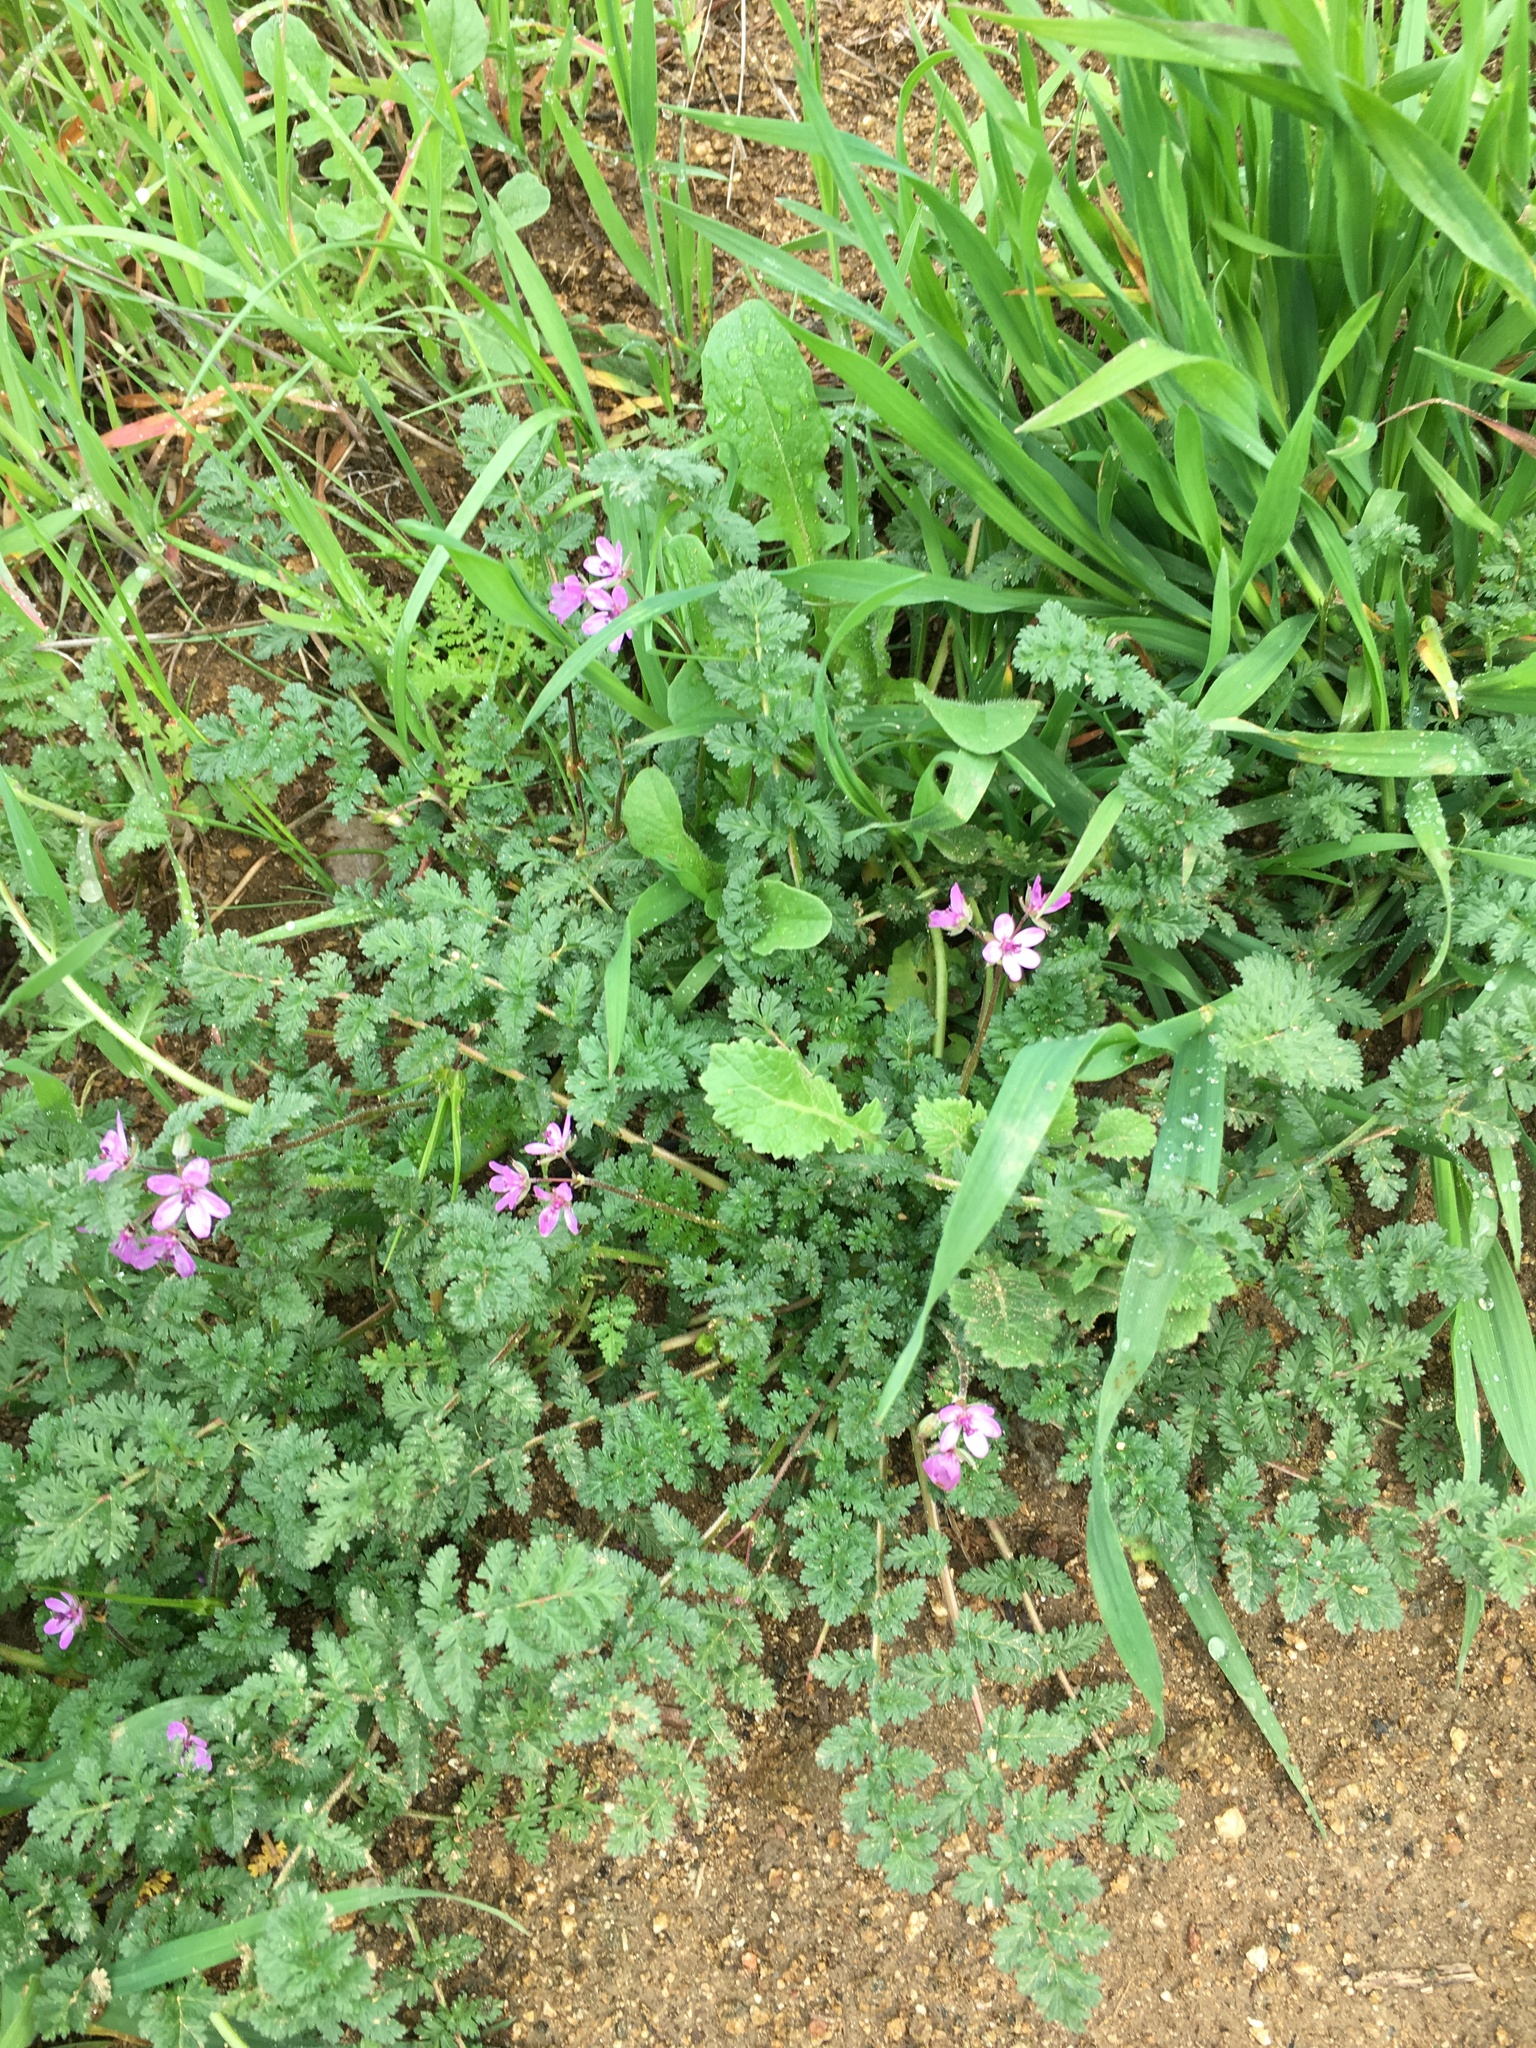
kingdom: Plantae
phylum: Tracheophyta
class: Magnoliopsida
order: Geraniales
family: Geraniaceae
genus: Erodium
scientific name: Erodium cicutarium
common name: Common stork's-bill
